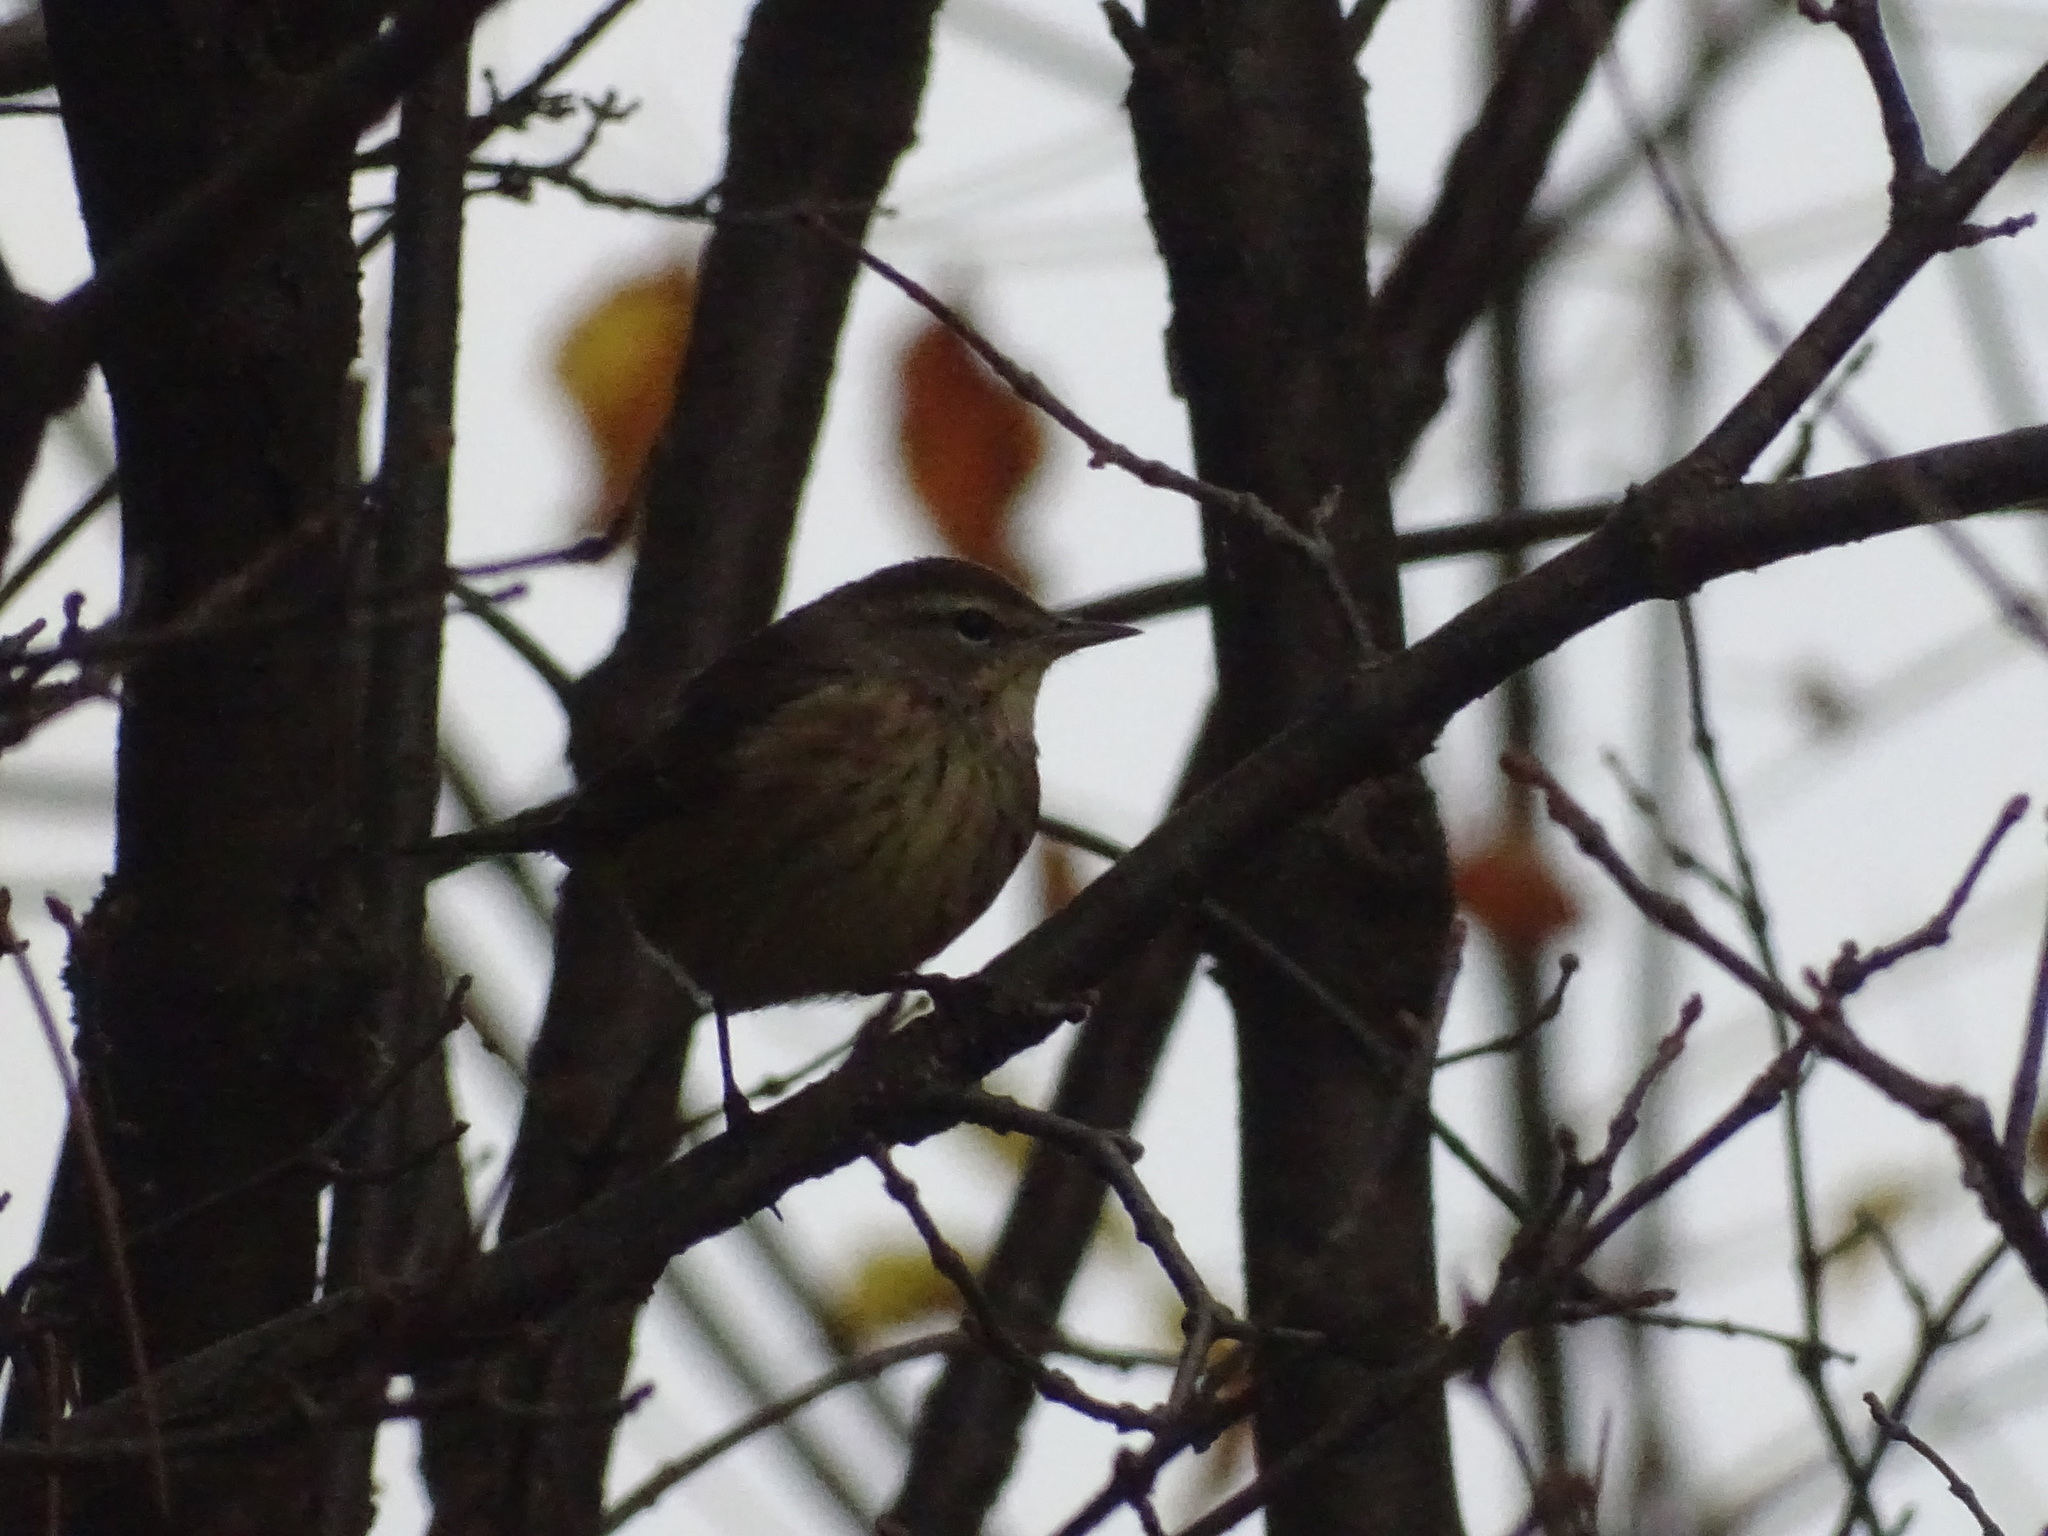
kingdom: Animalia
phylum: Chordata
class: Aves
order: Passeriformes
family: Parulidae
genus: Setophaga
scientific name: Setophaga palmarum
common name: Palm warbler
